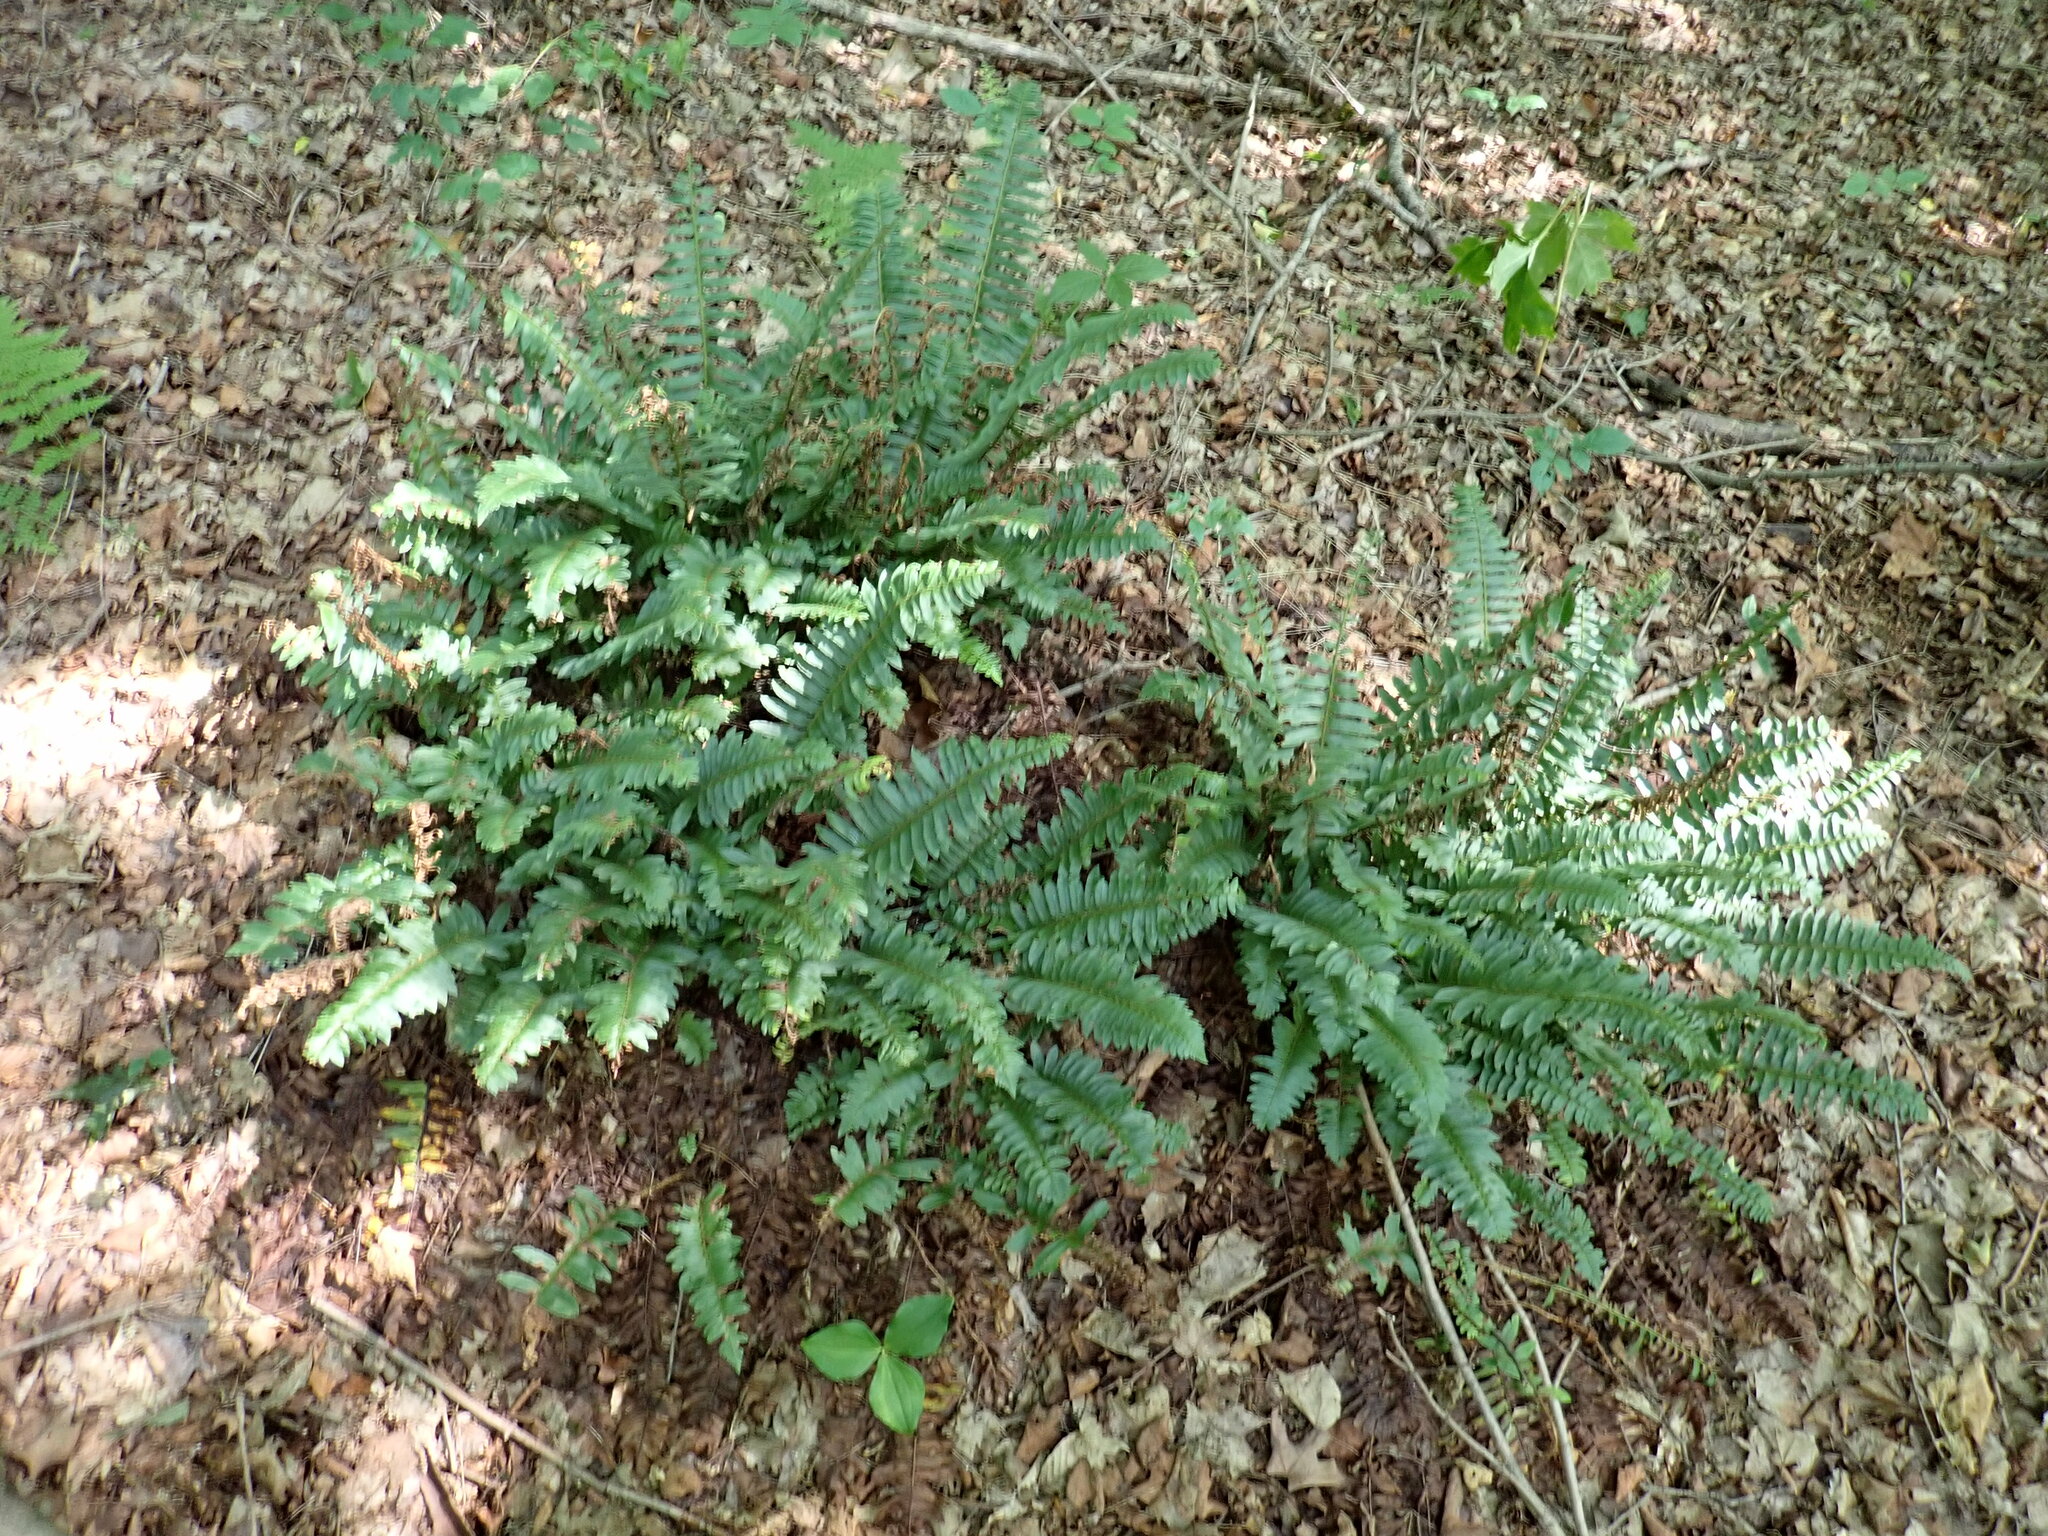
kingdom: Plantae
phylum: Tracheophyta
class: Polypodiopsida
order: Polypodiales
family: Dryopteridaceae
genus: Polystichum
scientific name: Polystichum acrostichoides
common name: Christmas fern
